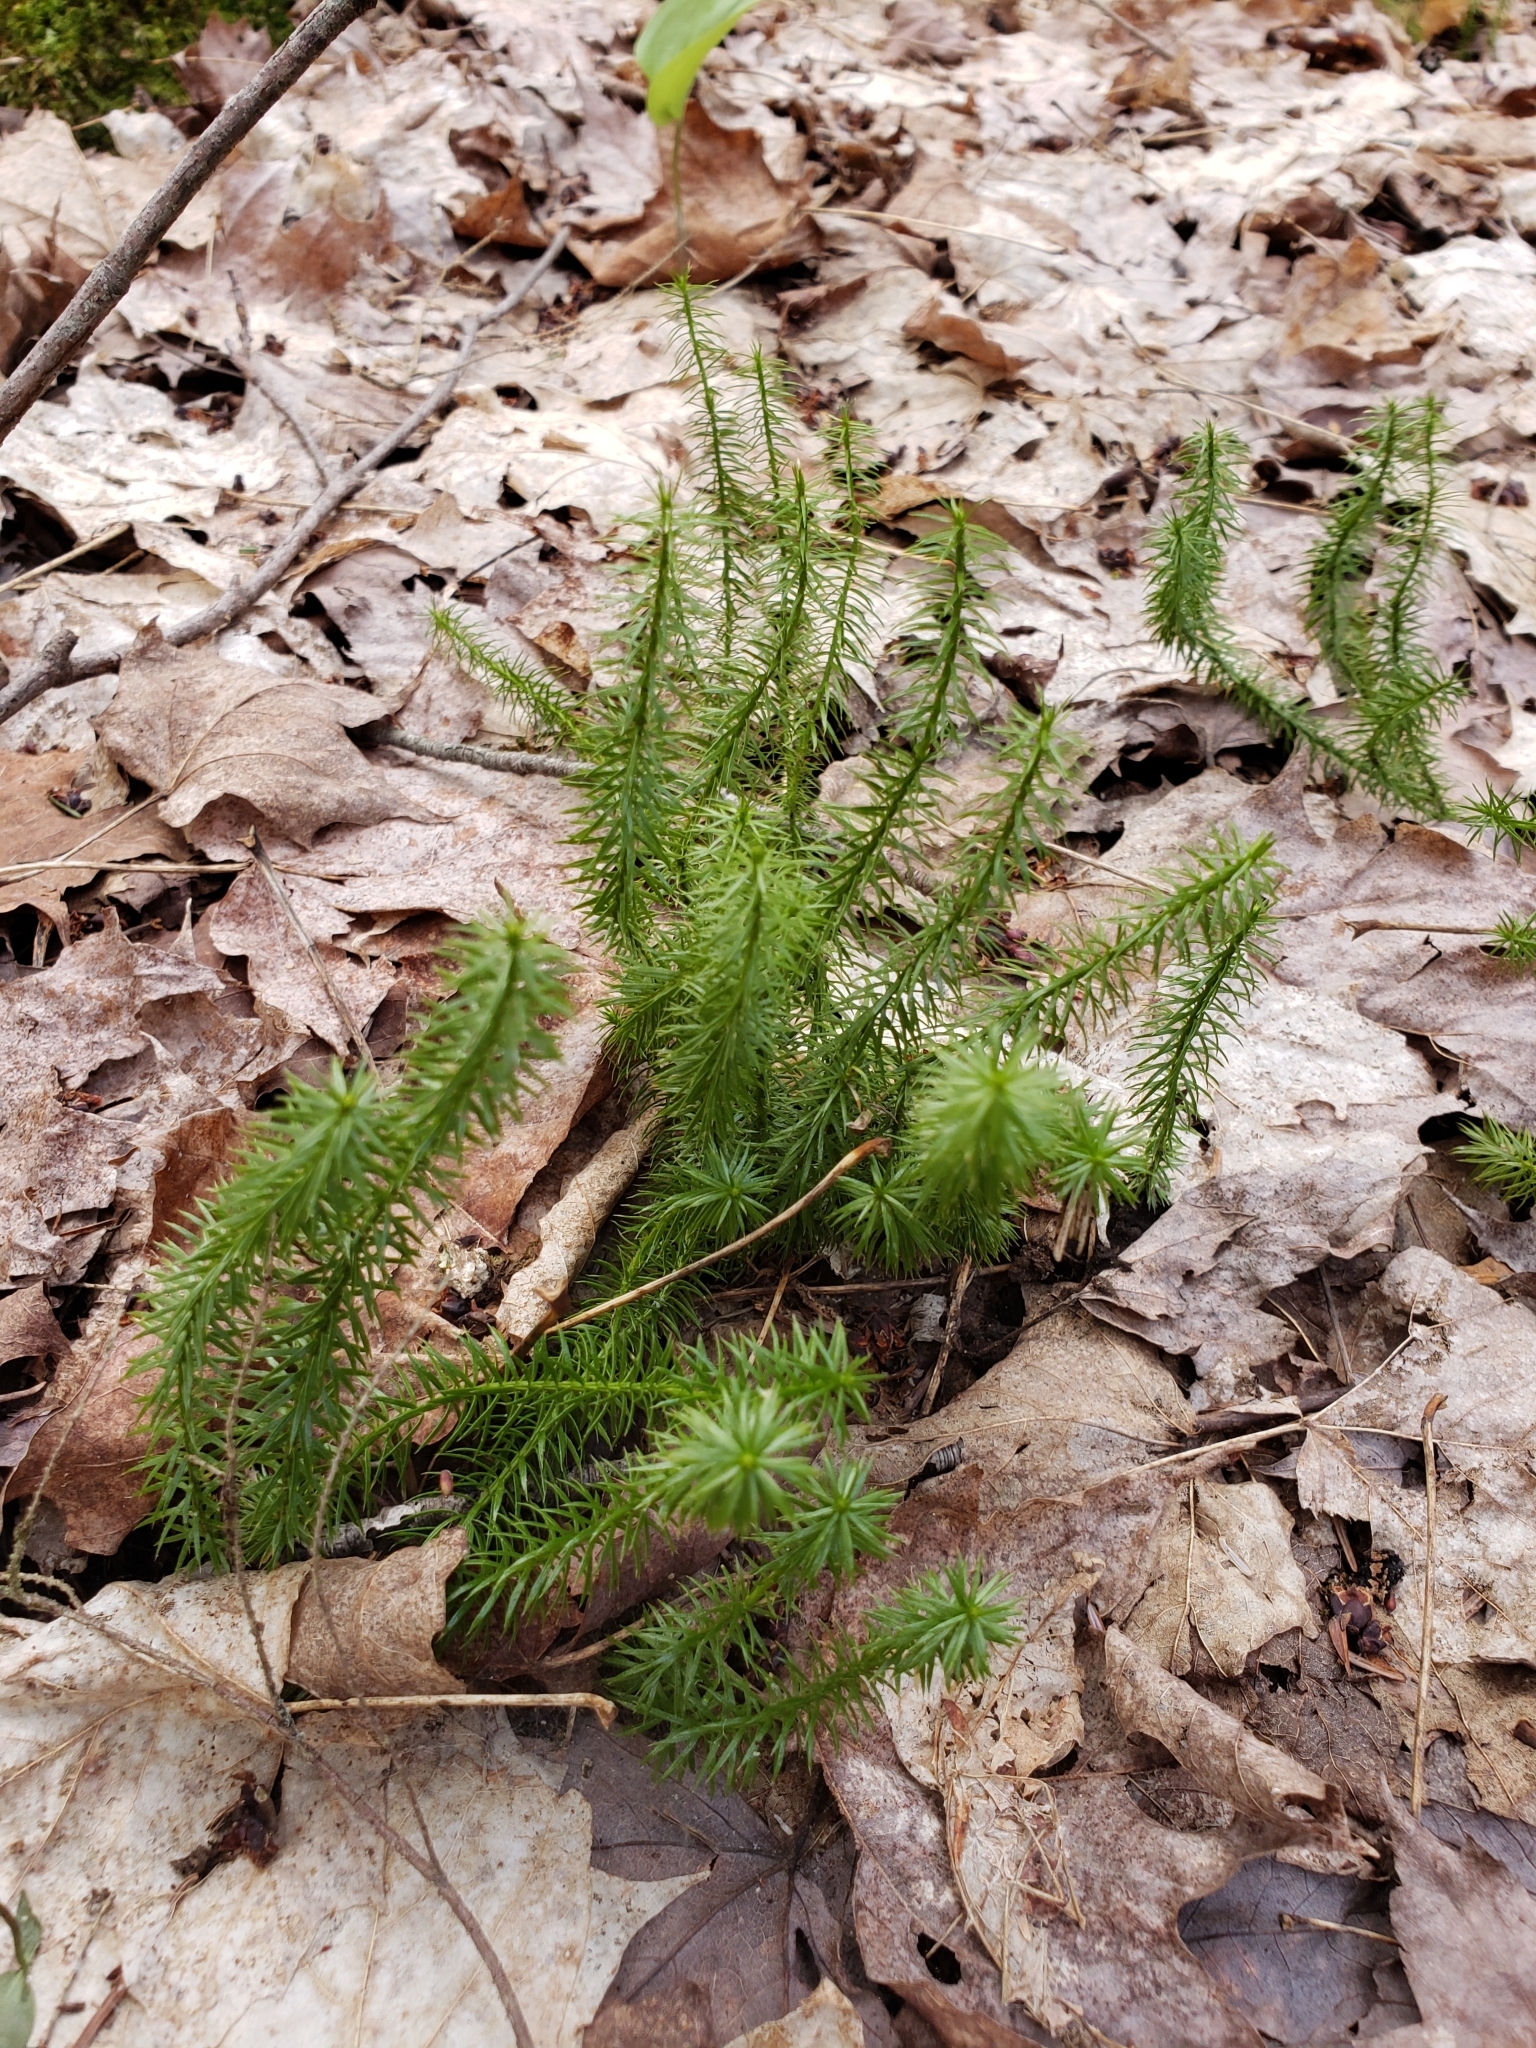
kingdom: Plantae
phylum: Tracheophyta
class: Lycopodiopsida
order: Lycopodiales
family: Lycopodiaceae
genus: Spinulum
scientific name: Spinulum annotinum
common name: Interrupted club-moss
